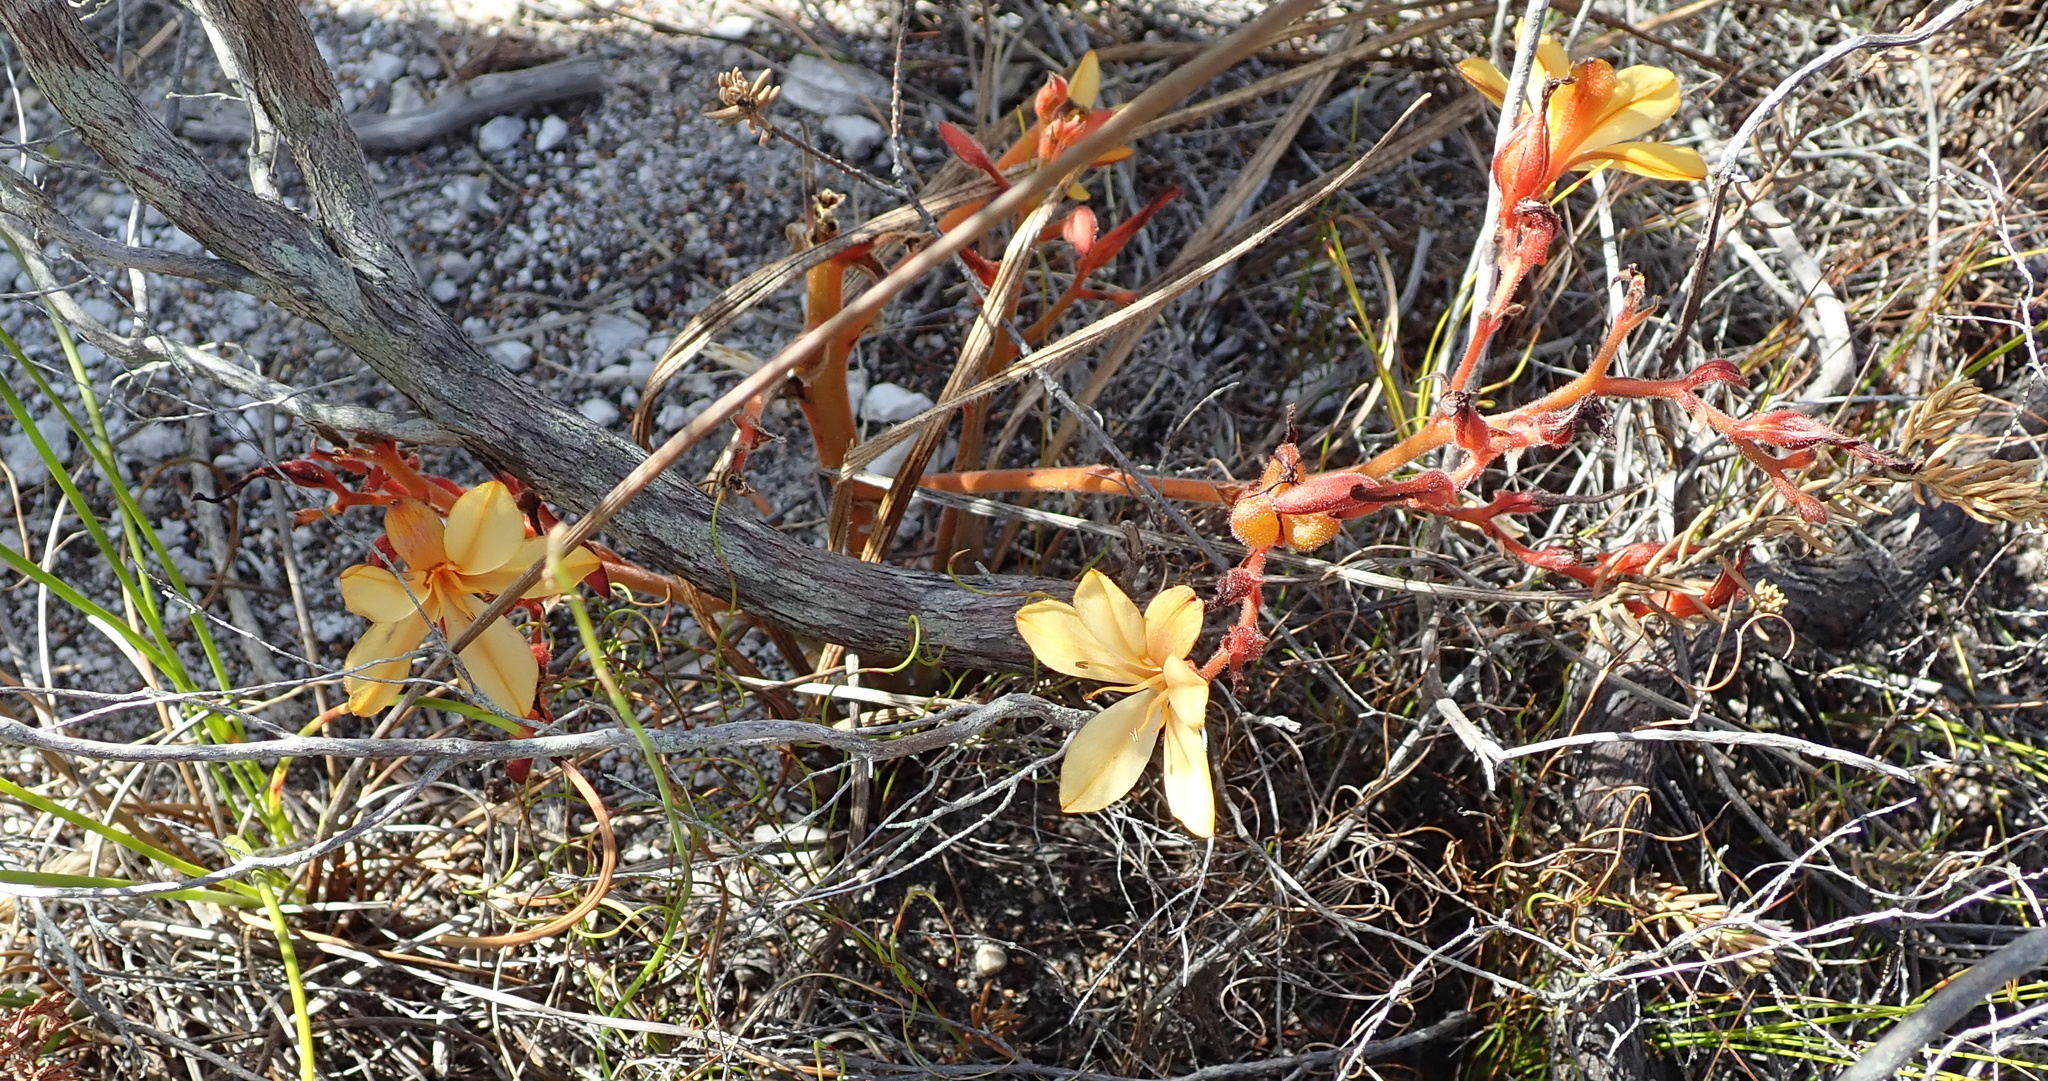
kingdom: Plantae
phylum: Tracheophyta
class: Liliopsida
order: Commelinales
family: Haemodoraceae
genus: Wachendorfia
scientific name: Wachendorfia paniculata
